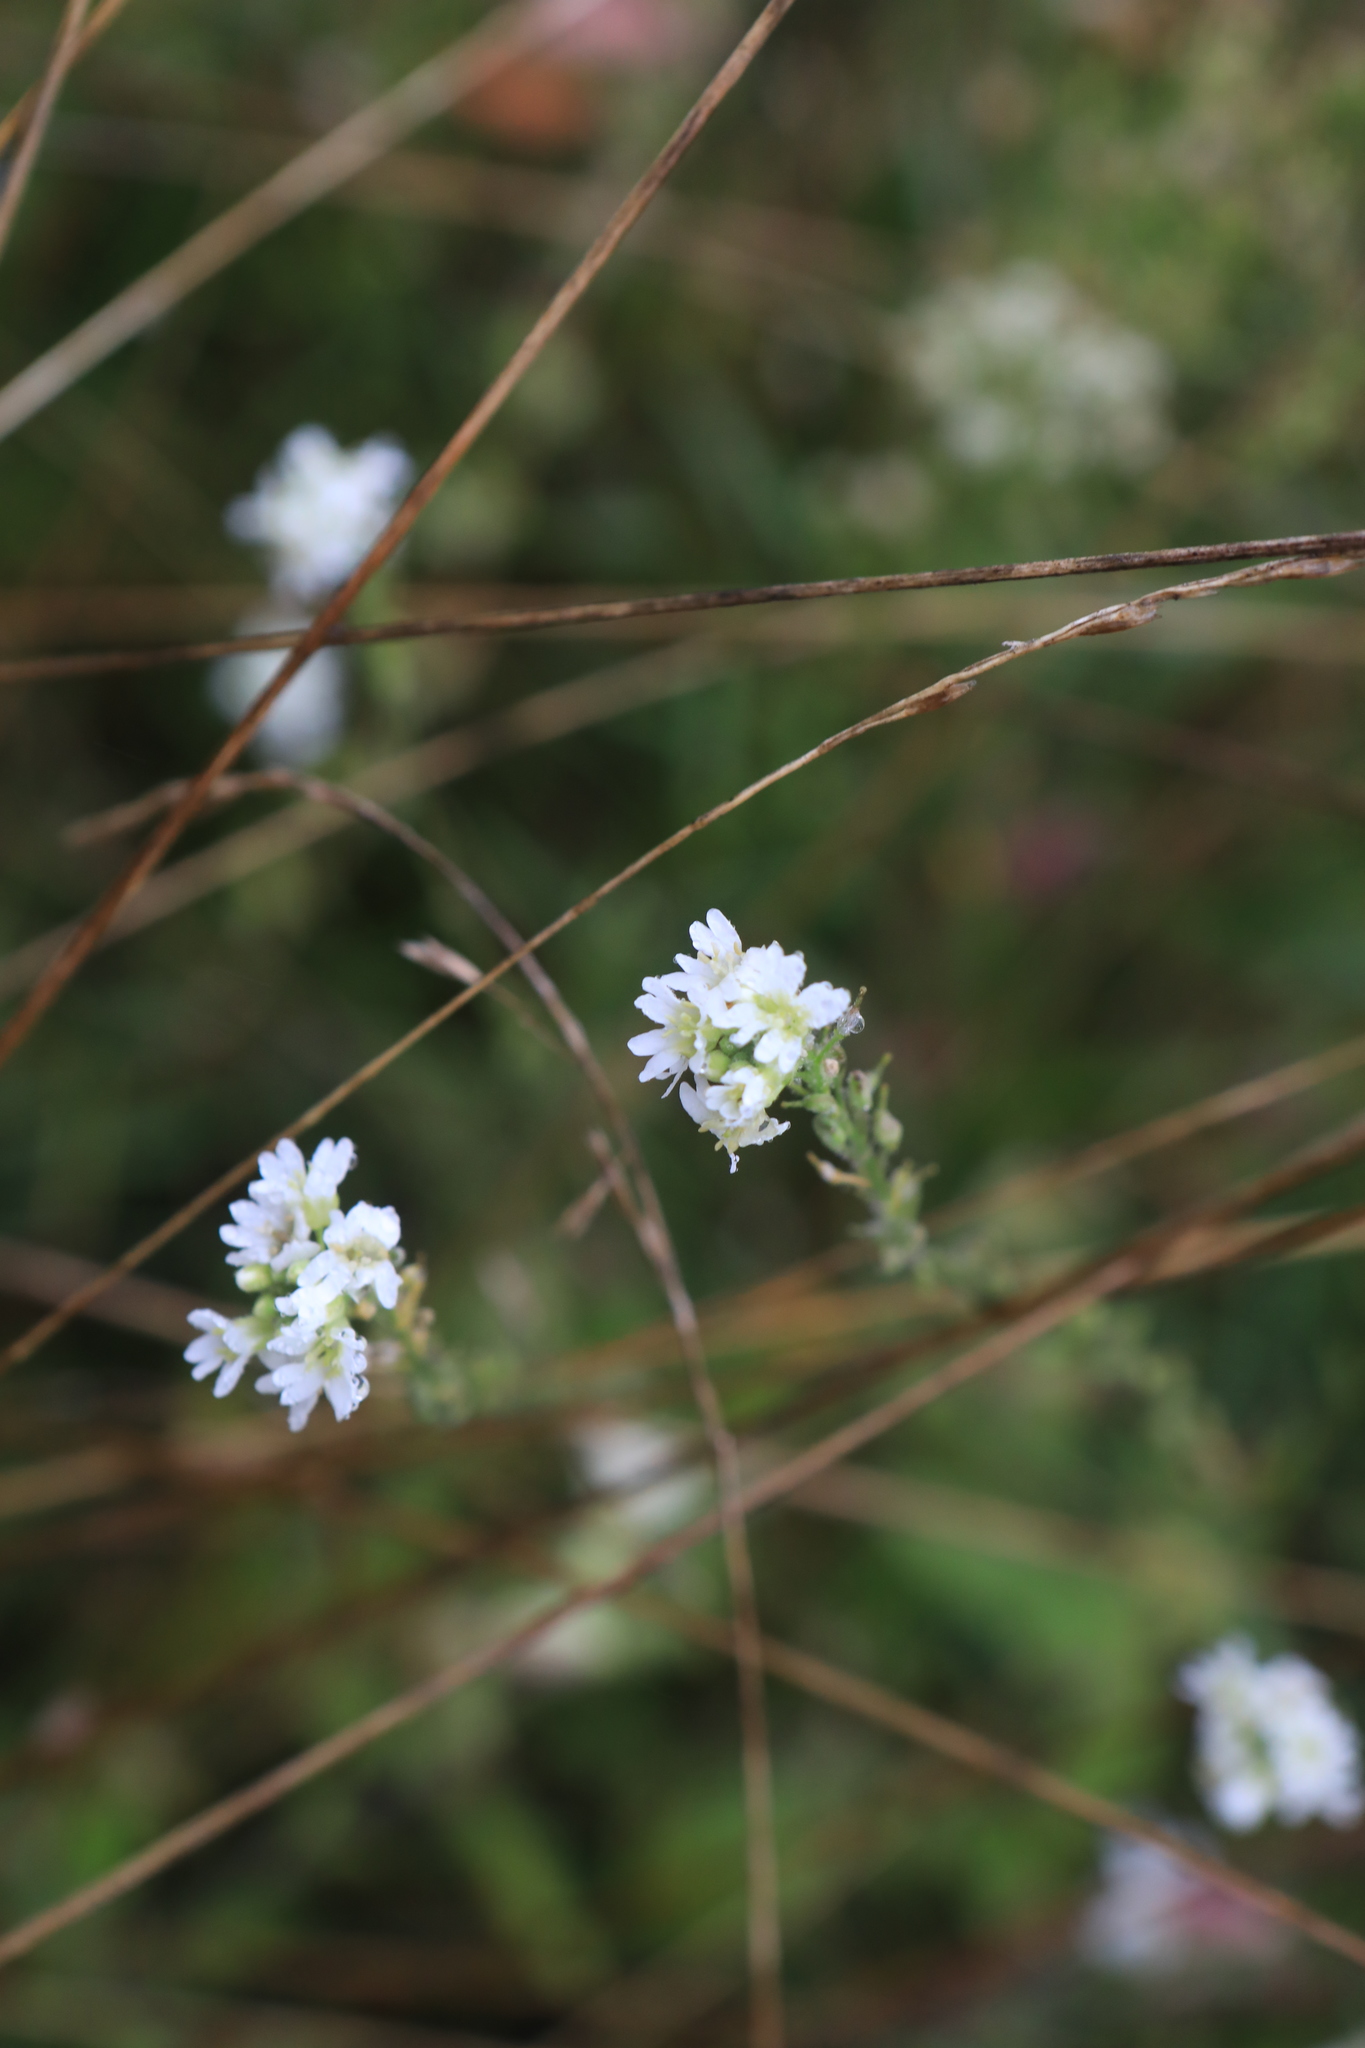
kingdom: Plantae
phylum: Tracheophyta
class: Magnoliopsida
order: Brassicales
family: Brassicaceae
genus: Berteroa
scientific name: Berteroa incana
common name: Hoary alison
